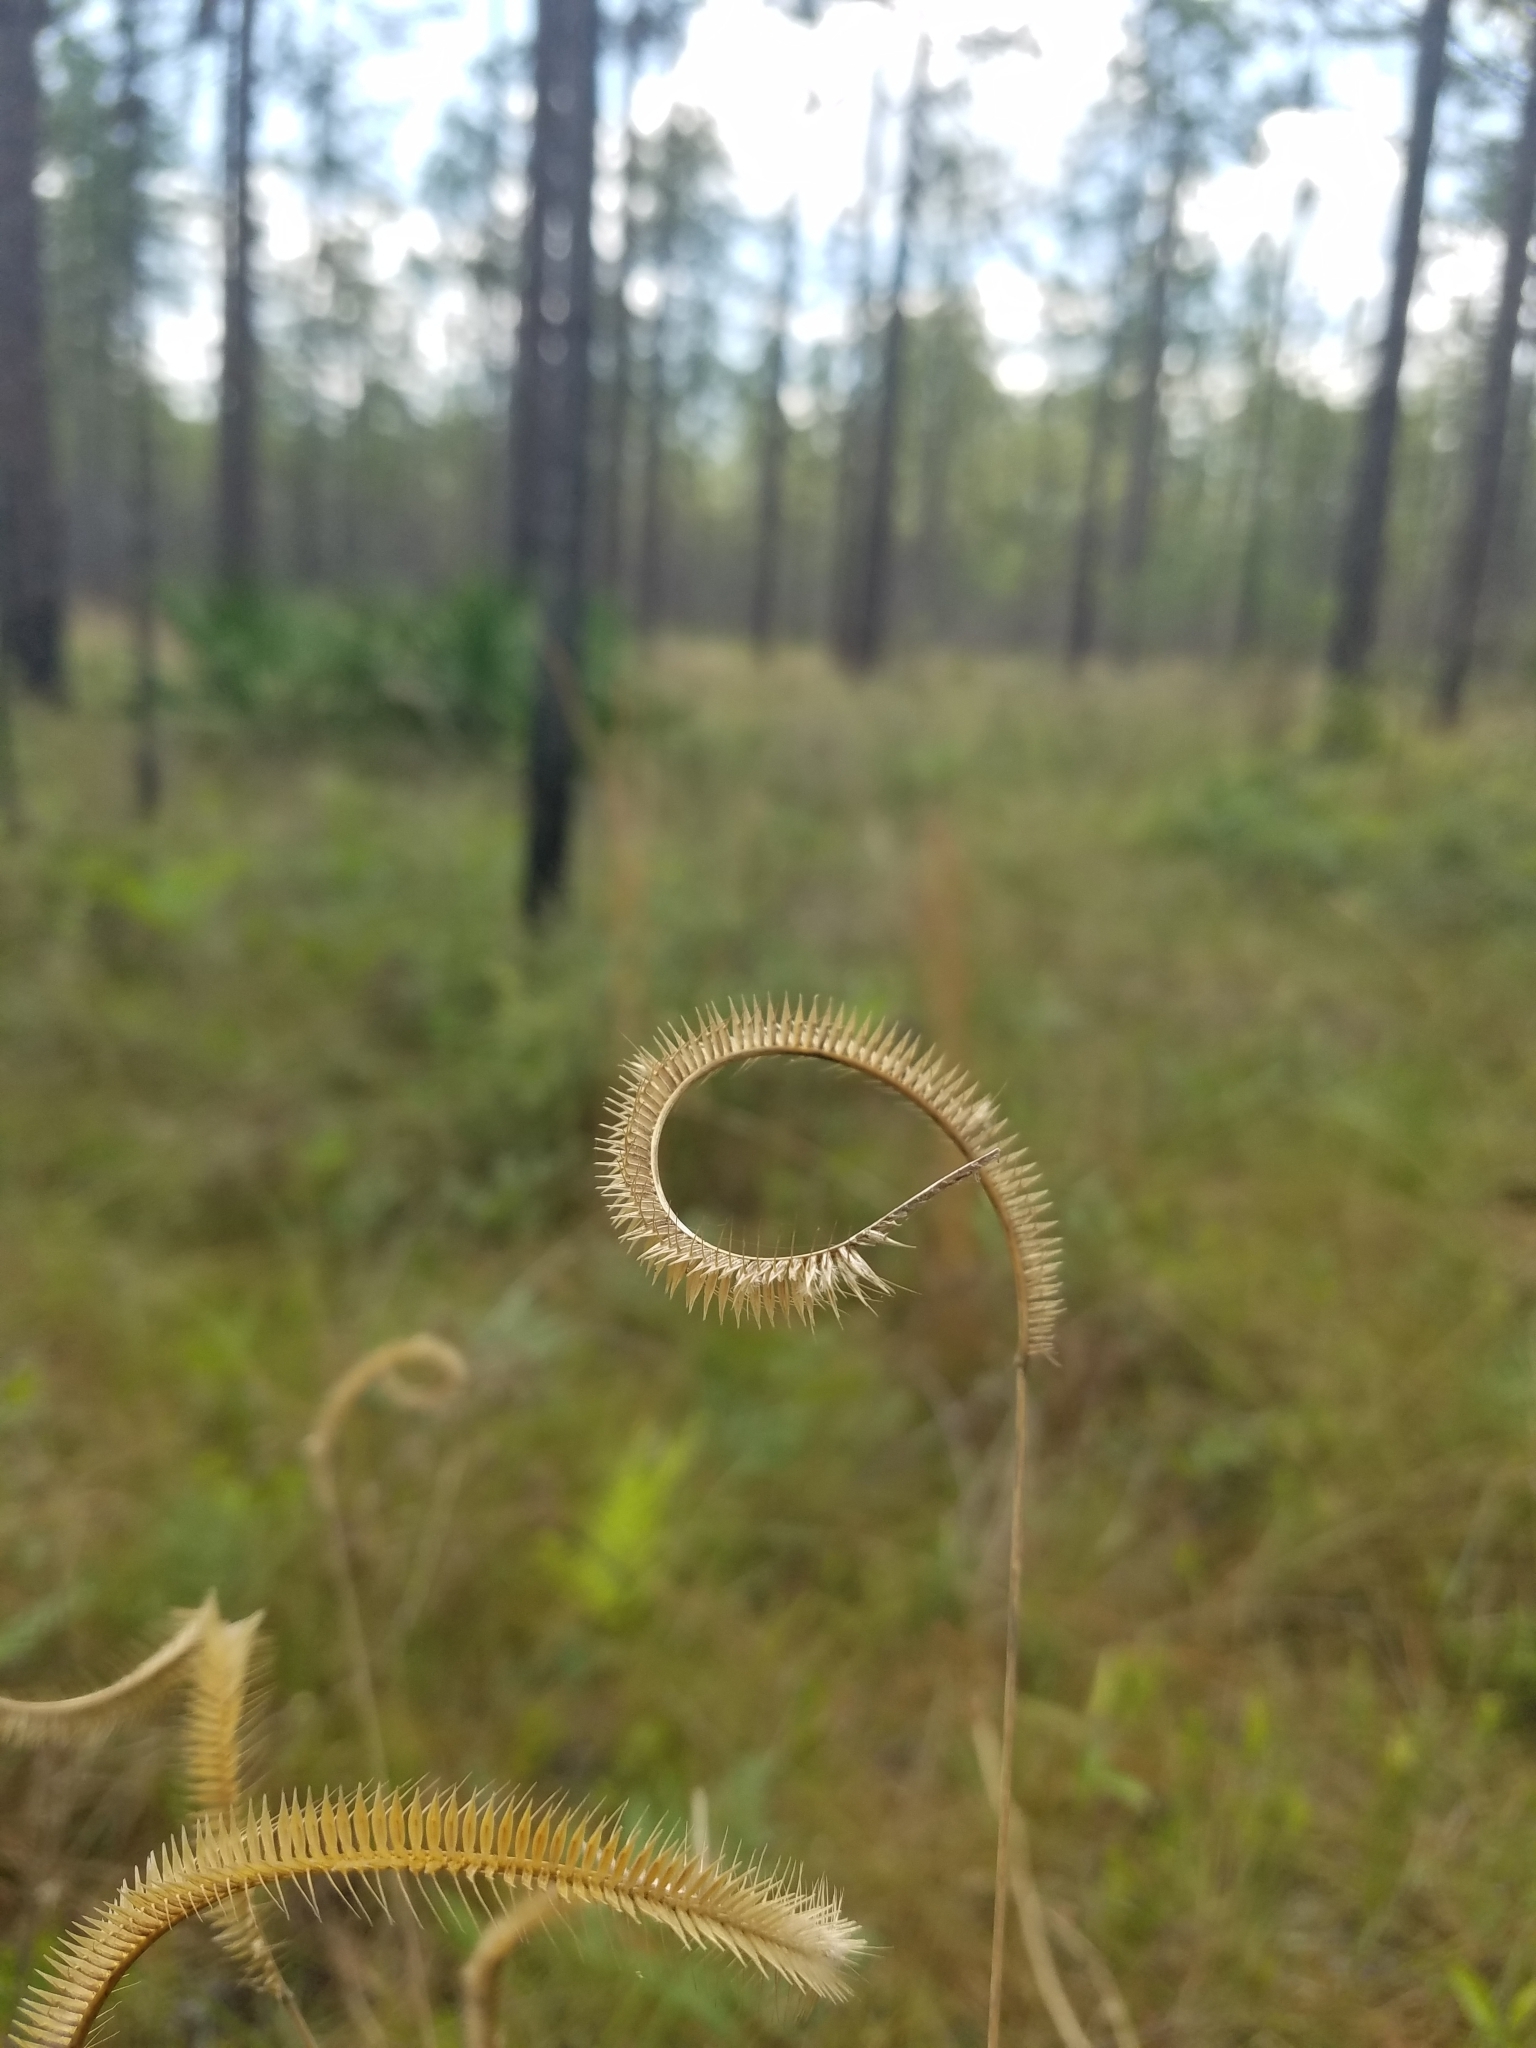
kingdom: Plantae
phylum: Tracheophyta
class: Liliopsida
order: Poales
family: Poaceae
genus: Ctenium
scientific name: Ctenium floridanum
